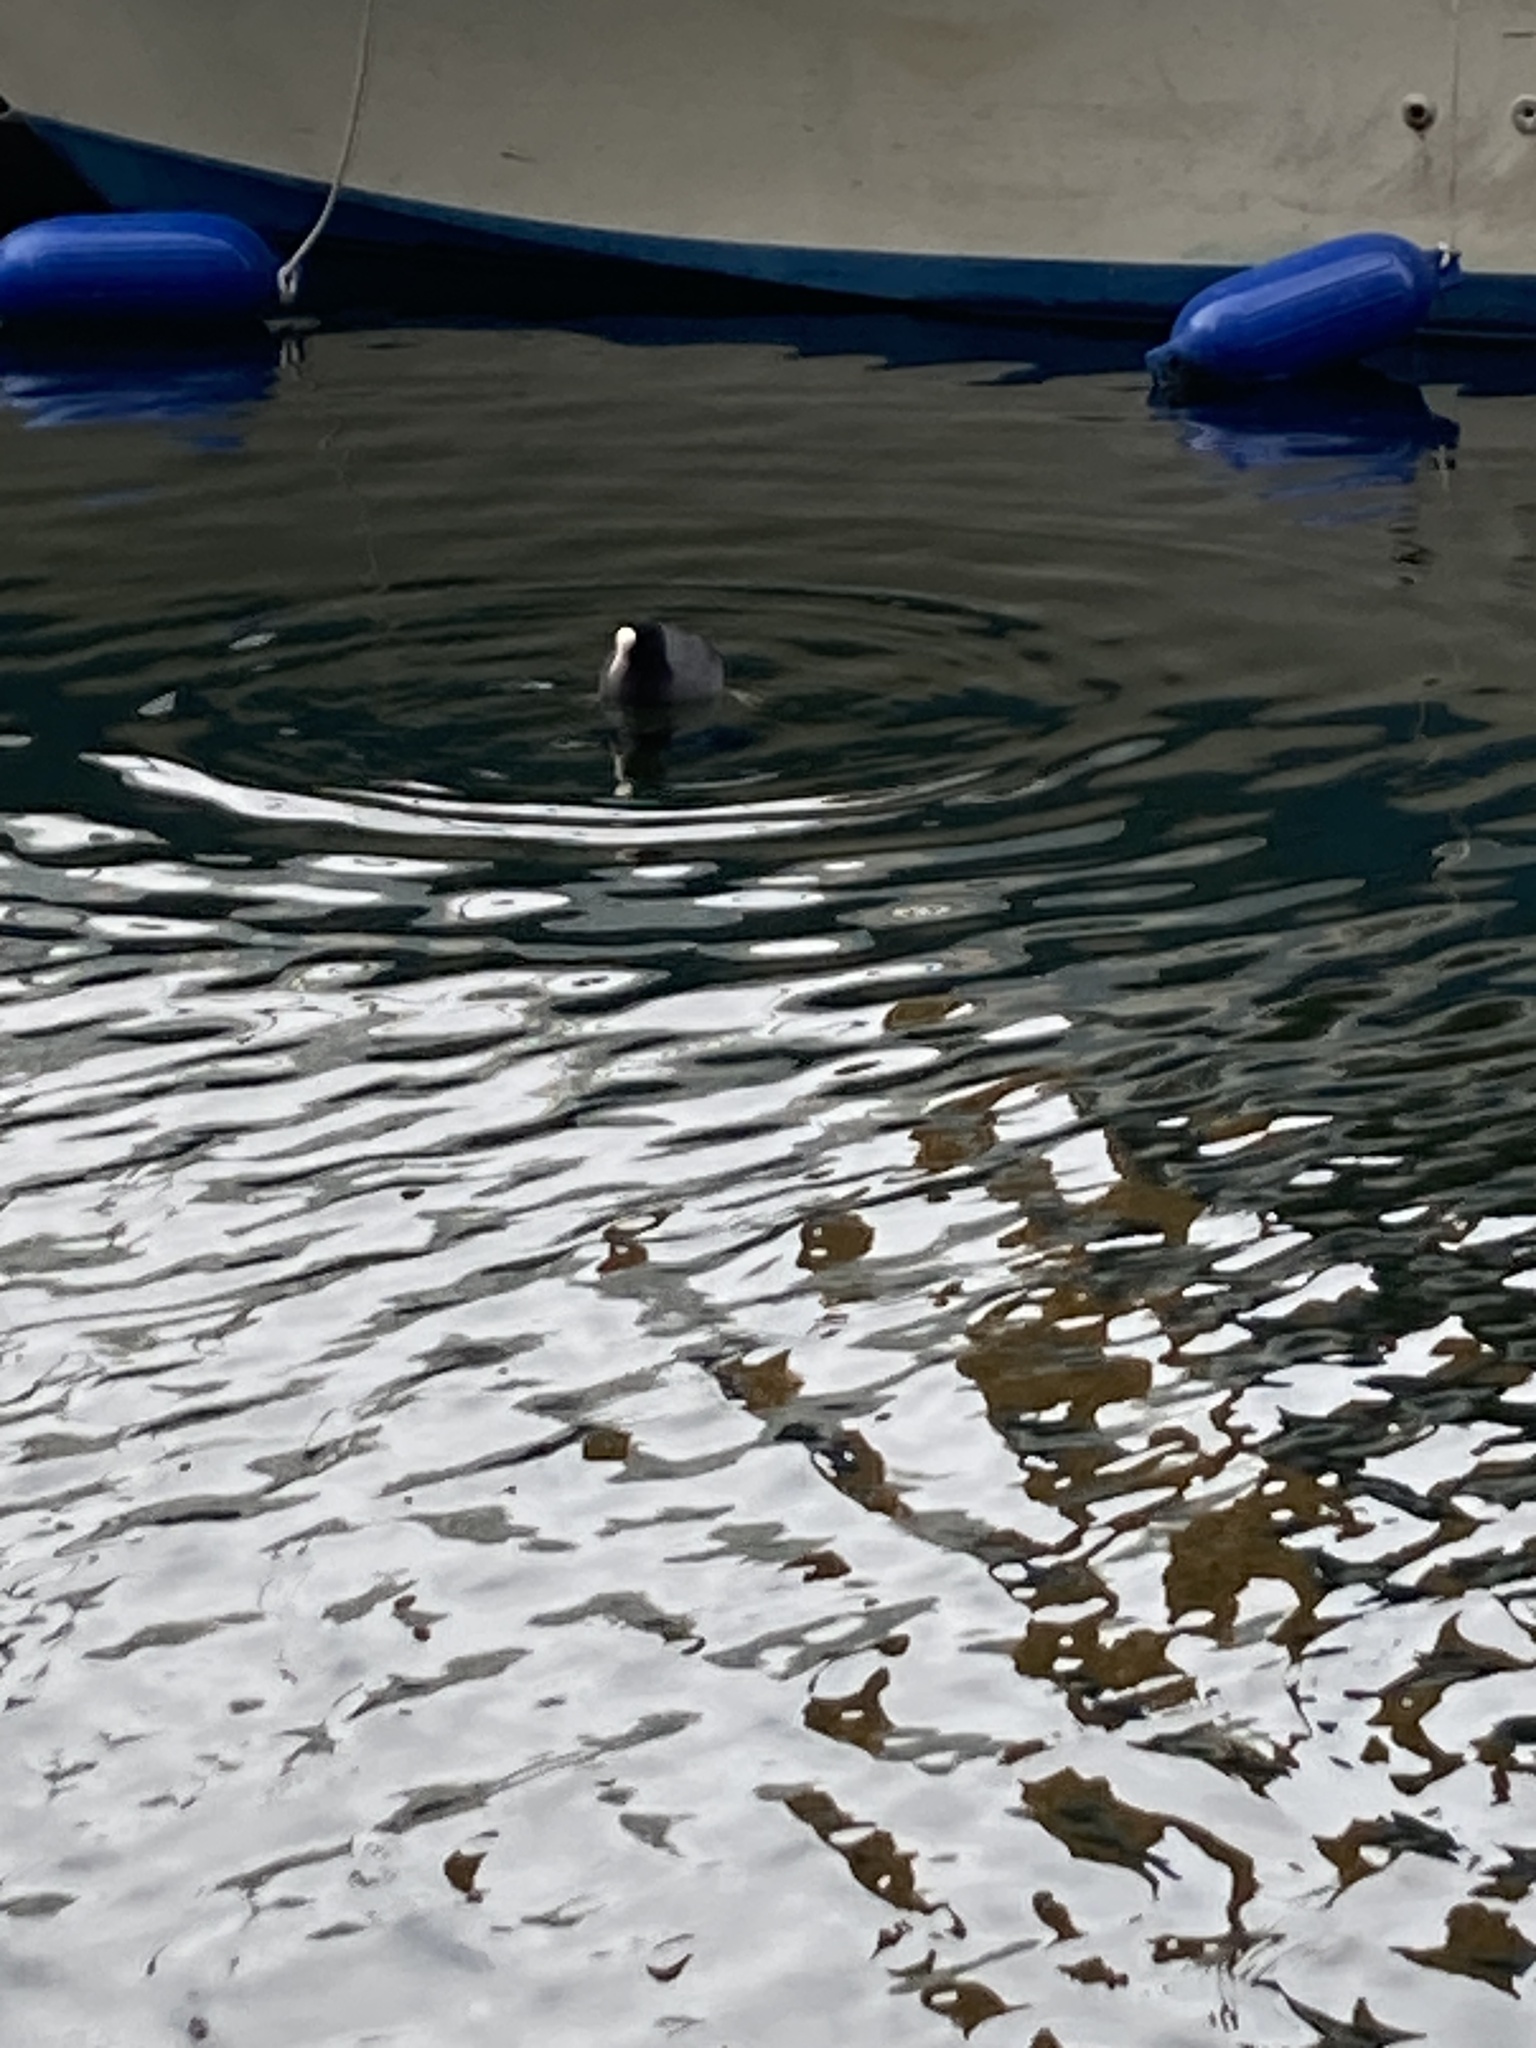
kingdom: Animalia
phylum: Chordata
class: Aves
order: Gruiformes
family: Rallidae
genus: Fulica
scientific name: Fulica atra
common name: Eurasian coot
